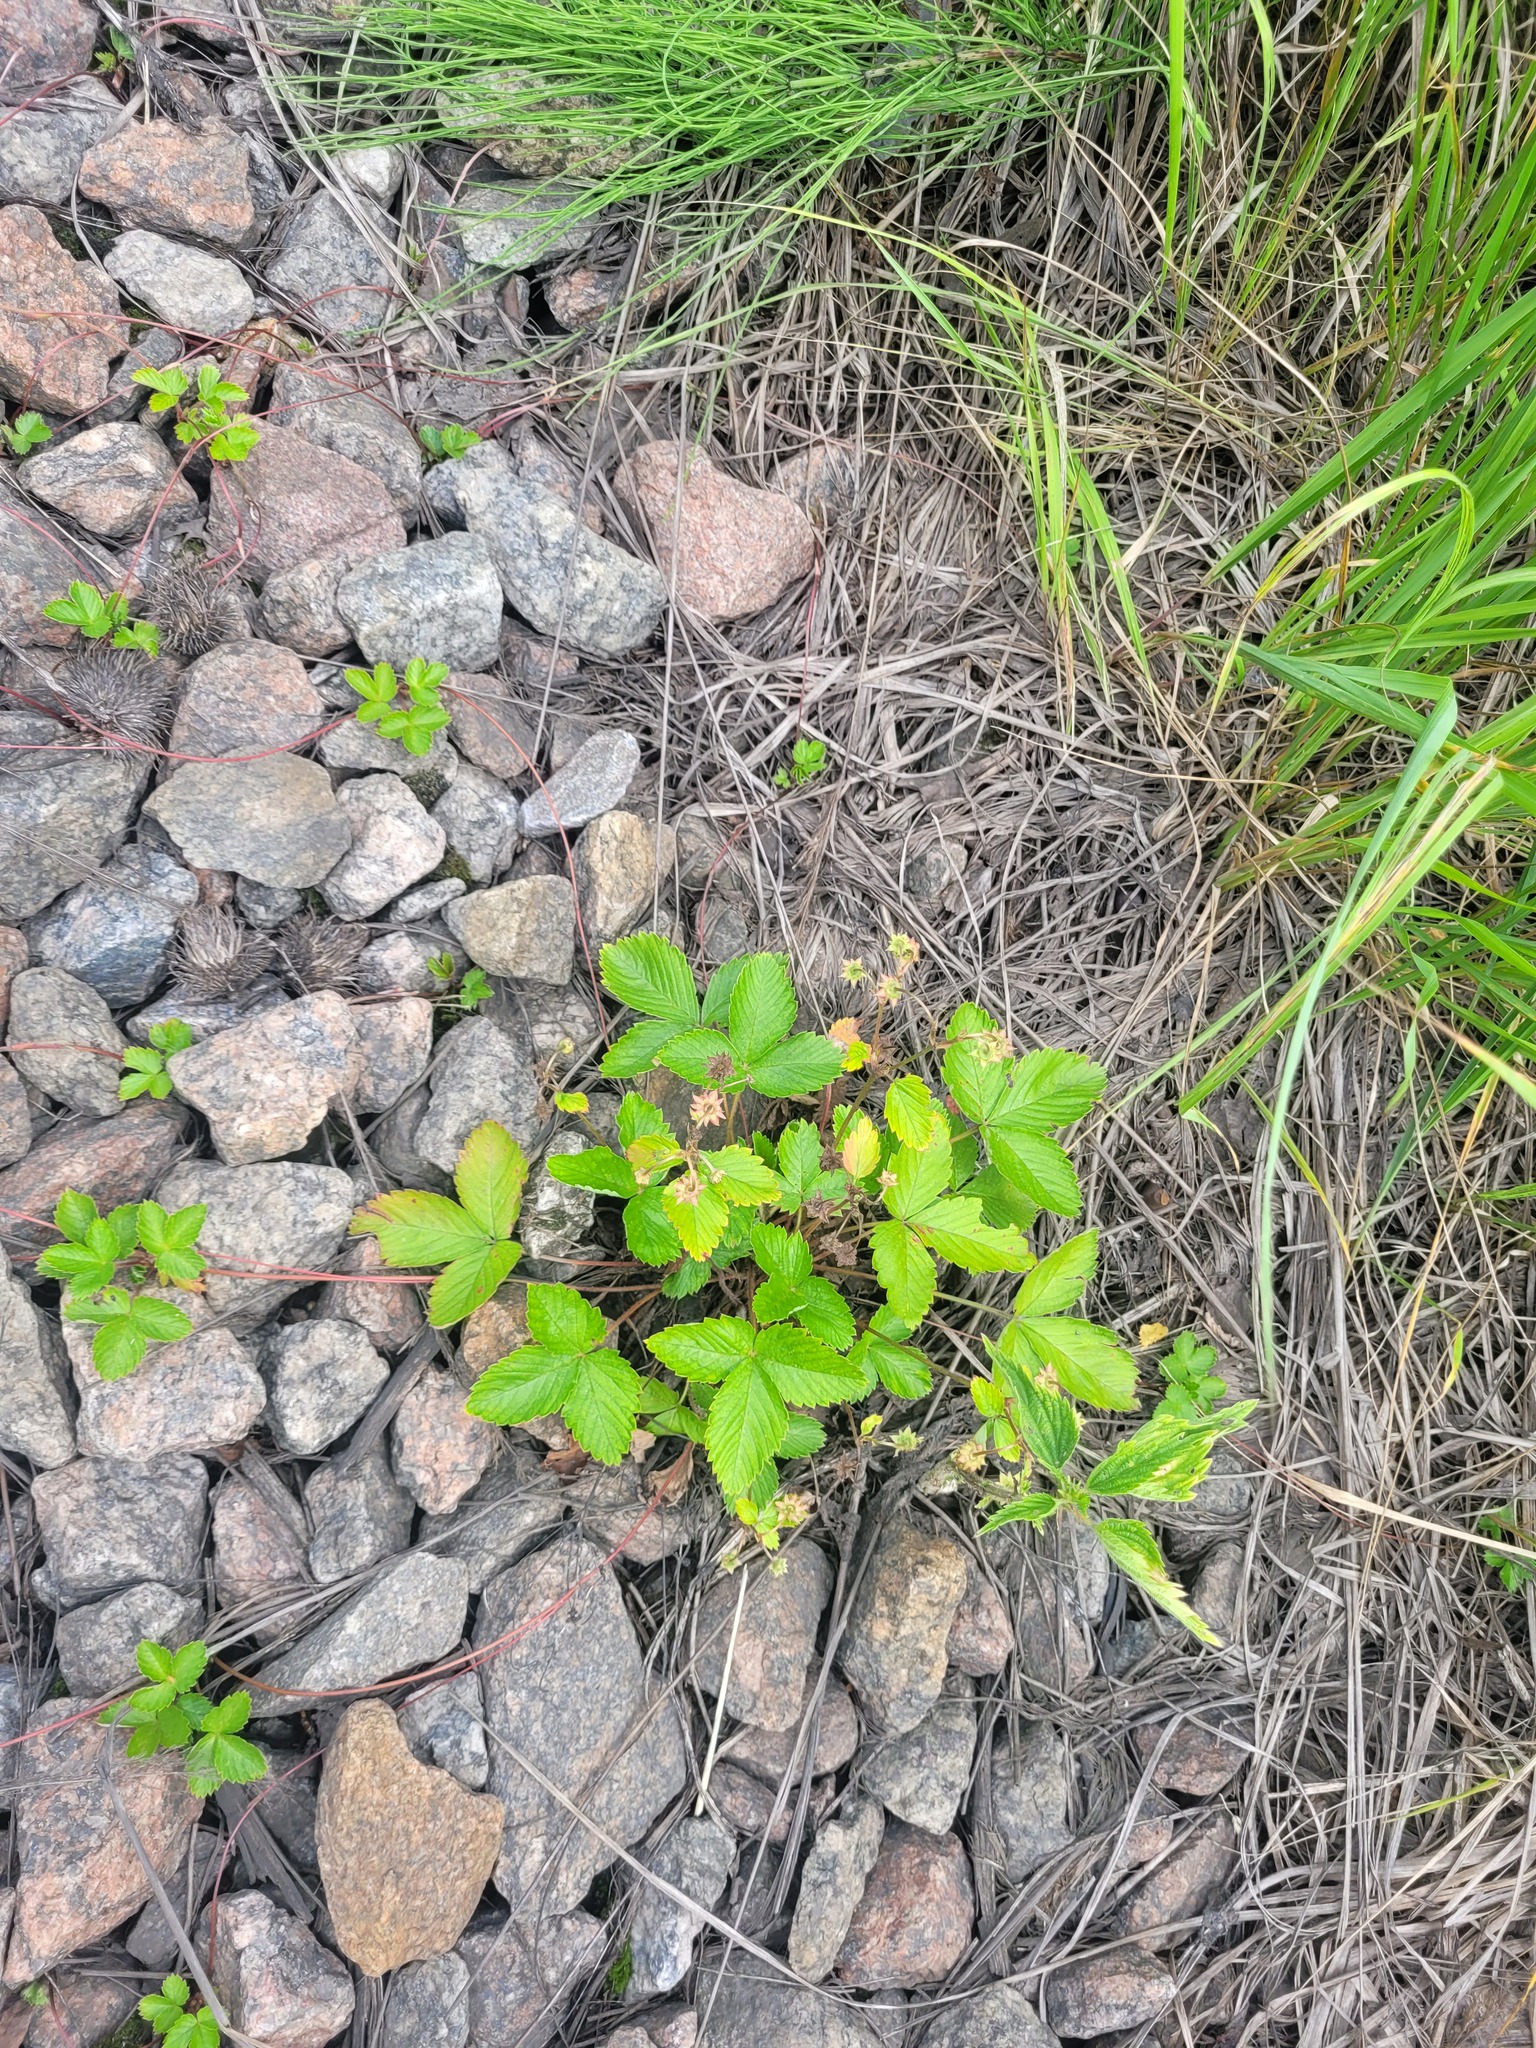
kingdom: Plantae
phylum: Tracheophyta
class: Magnoliopsida
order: Rosales
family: Rosaceae
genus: Fragaria
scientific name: Fragaria vesca
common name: Wild strawberry
